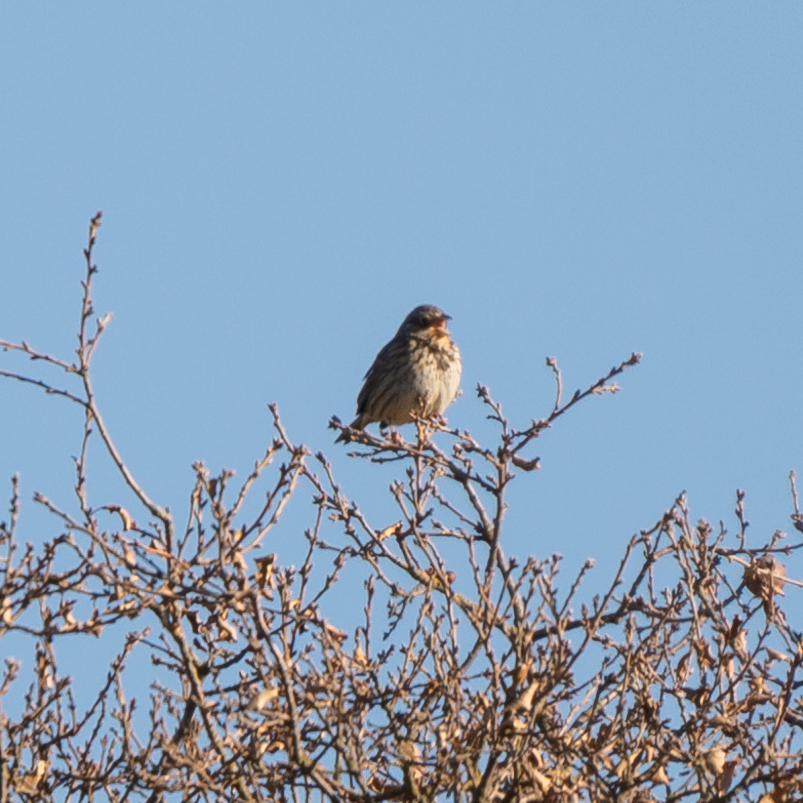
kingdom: Animalia
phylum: Chordata
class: Aves
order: Passeriformes
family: Emberizidae
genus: Emberiza
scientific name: Emberiza calandra
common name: Corn bunting
